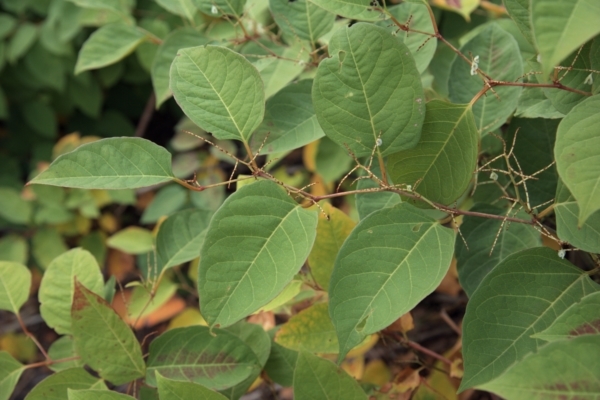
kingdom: Plantae
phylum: Tracheophyta
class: Magnoliopsida
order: Caryophyllales
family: Polygonaceae
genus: Reynoutria
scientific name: Reynoutria japonica
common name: Japanese knotweed
